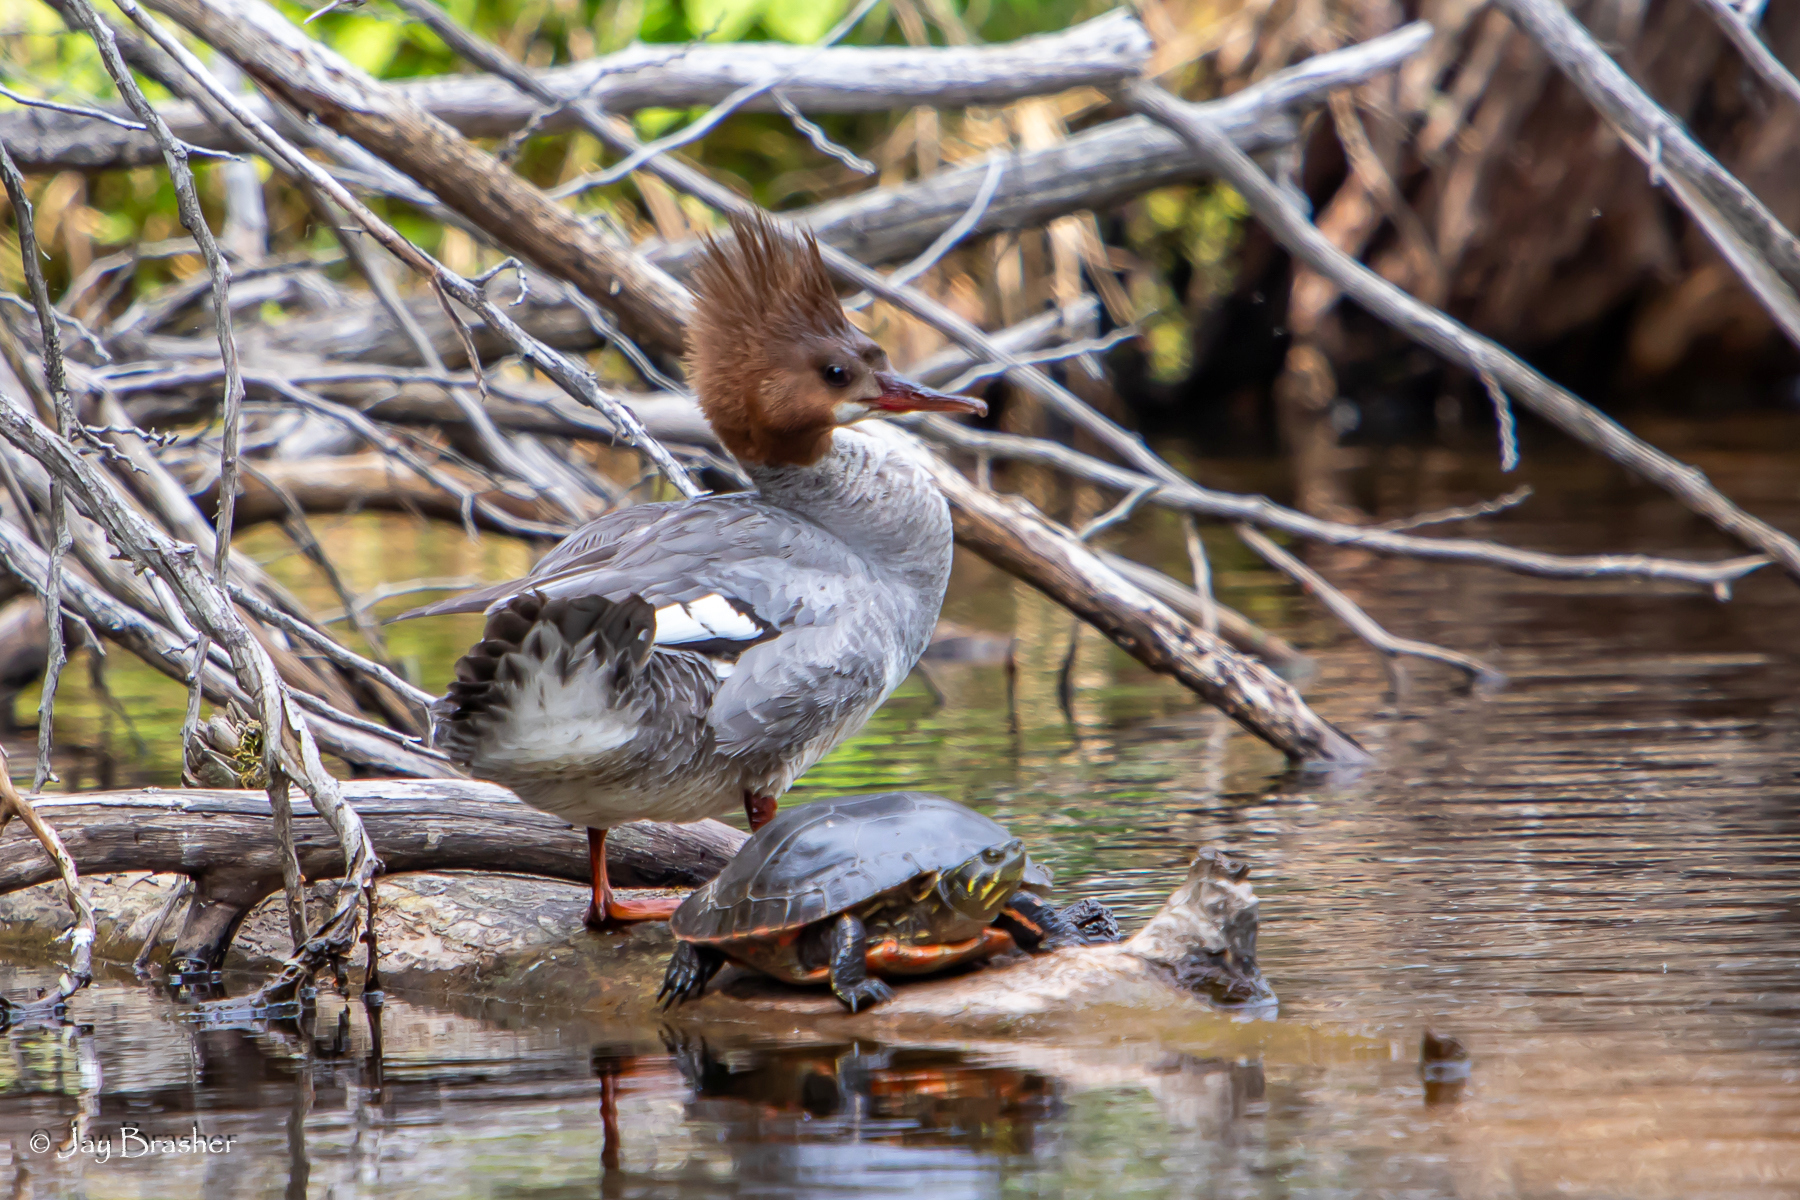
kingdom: Animalia
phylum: Chordata
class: Aves
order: Anseriformes
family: Anatidae
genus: Mergus
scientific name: Mergus serrator
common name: Red-breasted merganser
